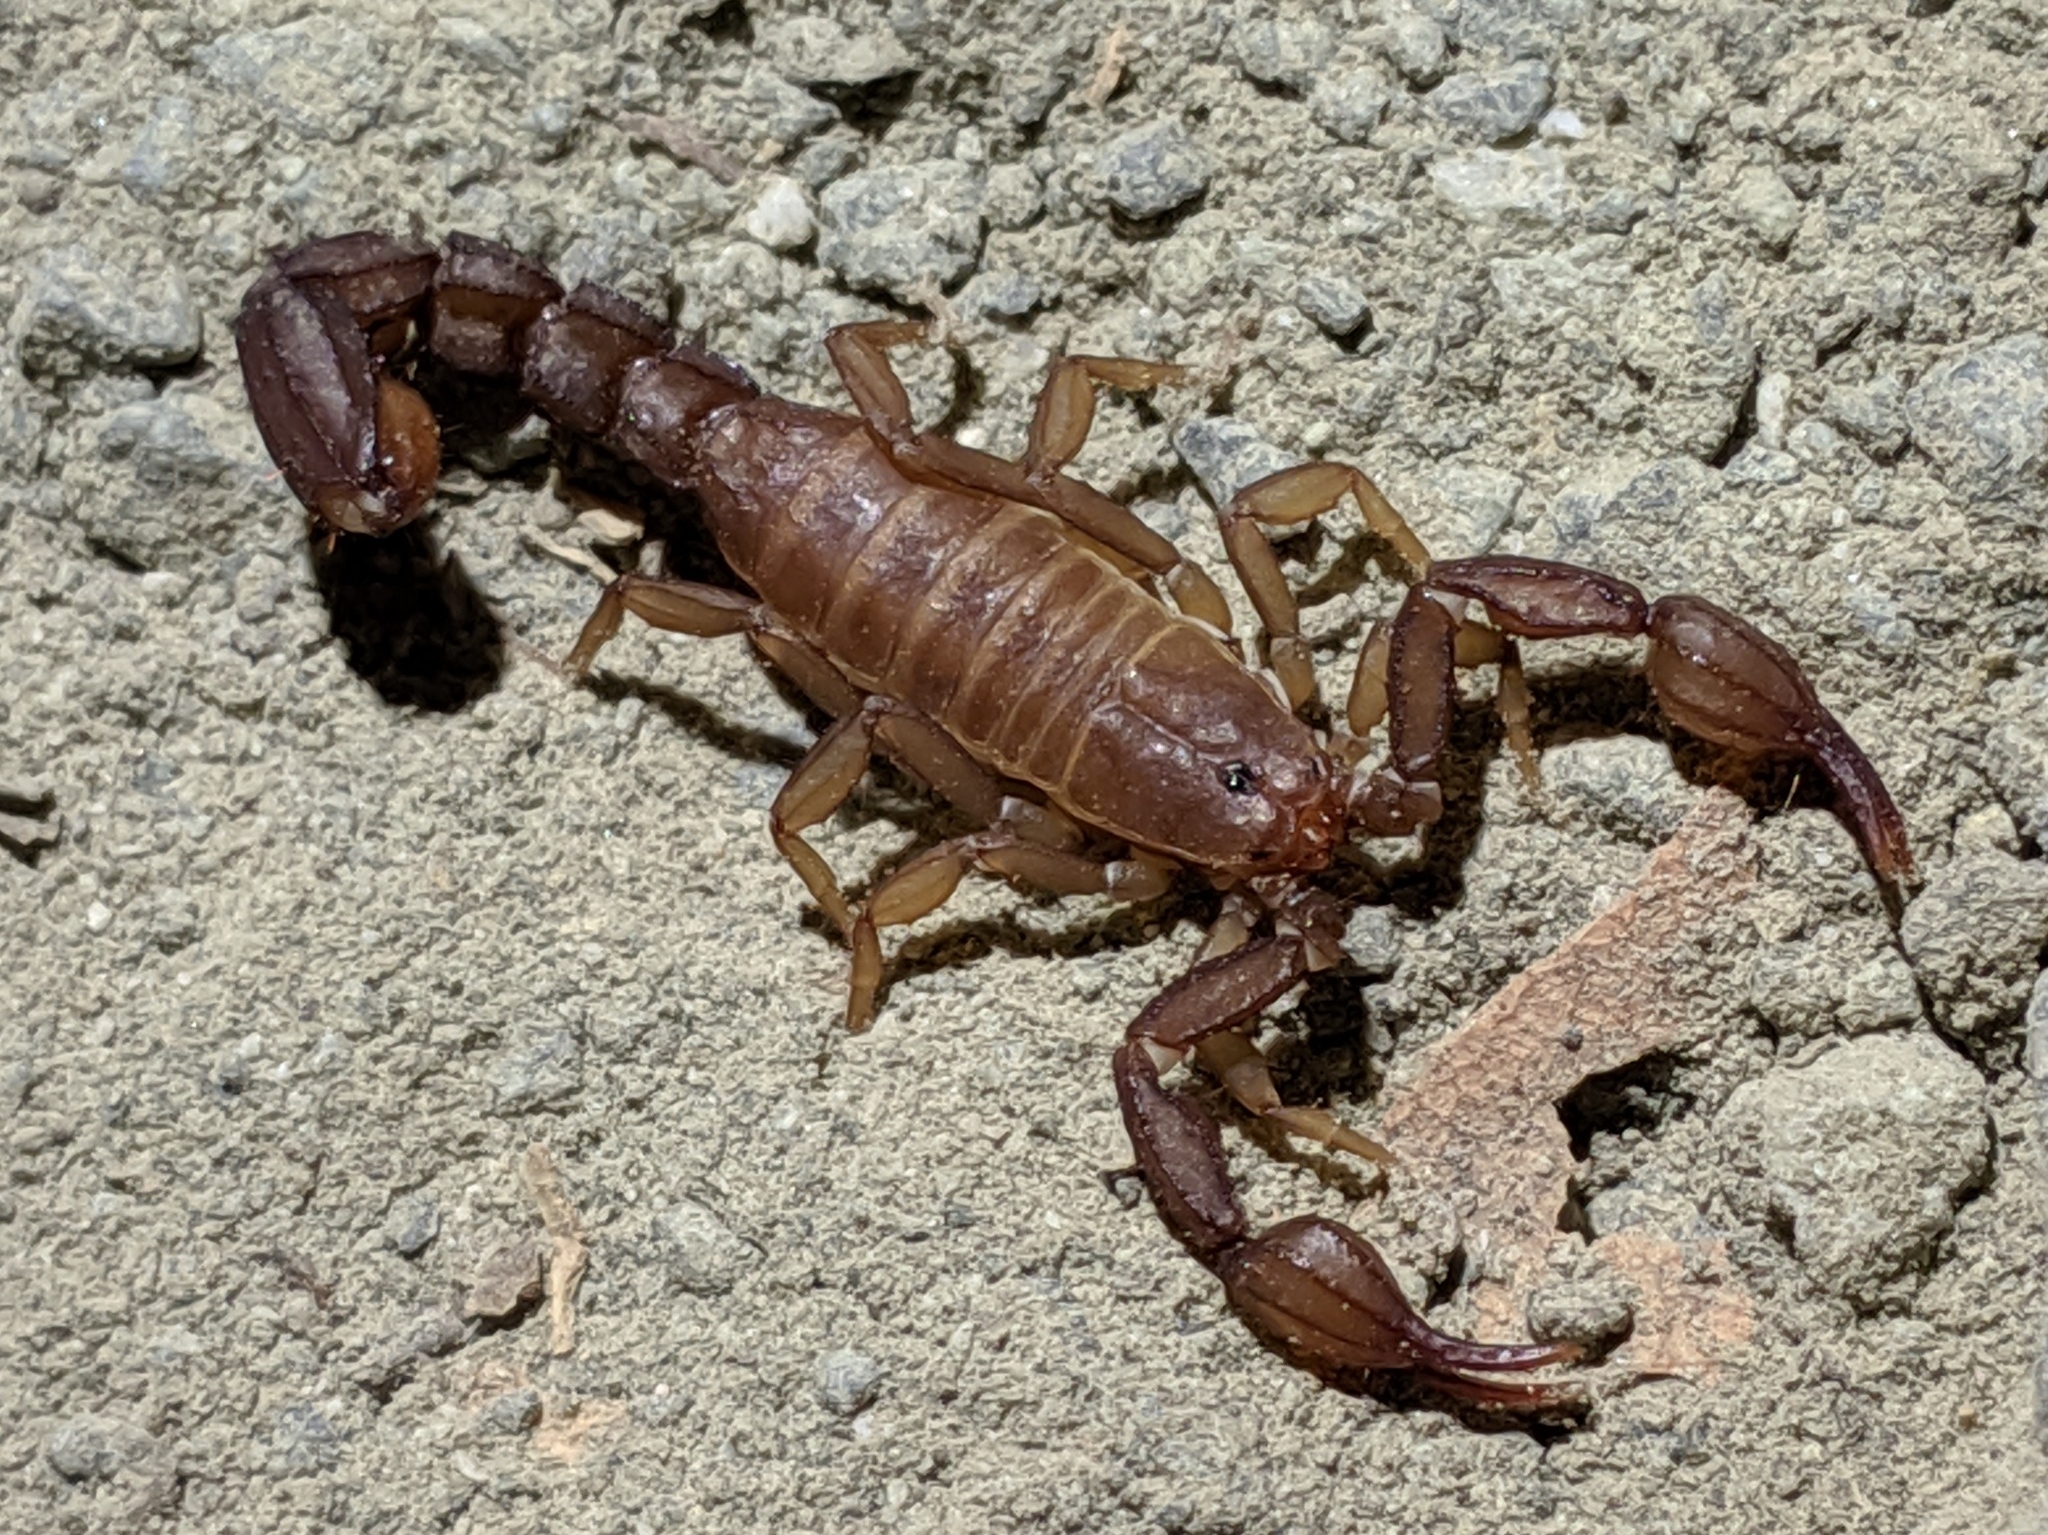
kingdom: Animalia
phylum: Arthropoda
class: Arachnida
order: Scorpiones
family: Vaejovidae
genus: Graemeloweus
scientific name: Graemeloweus iviei
